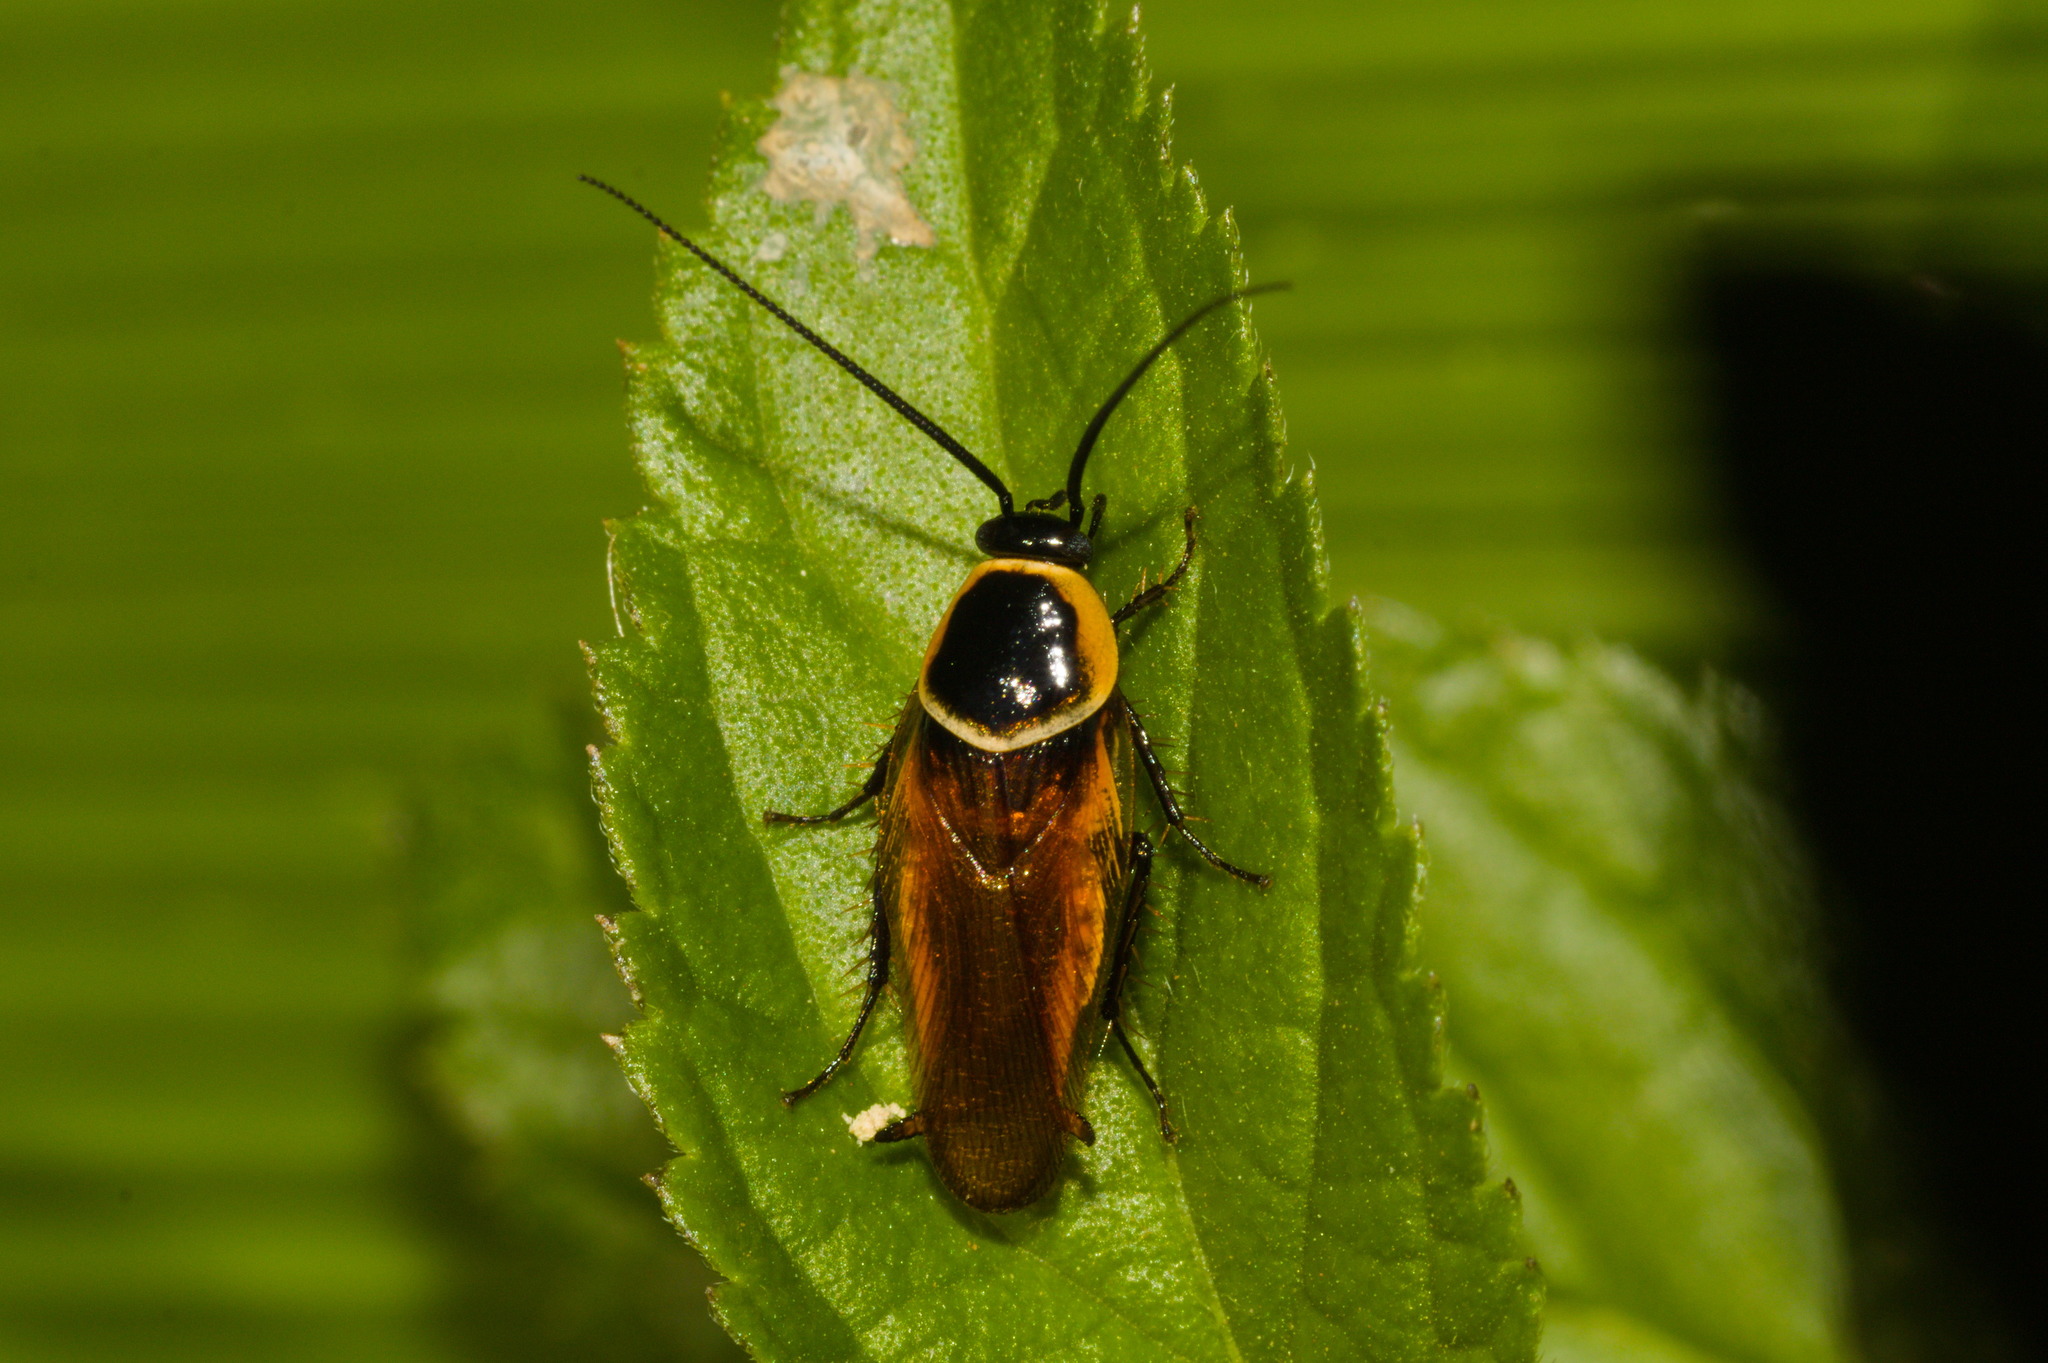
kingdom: Animalia
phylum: Arthropoda
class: Insecta
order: Blattodea
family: Ectobiidae
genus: Pseudomops
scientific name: Pseudomops neglectus
